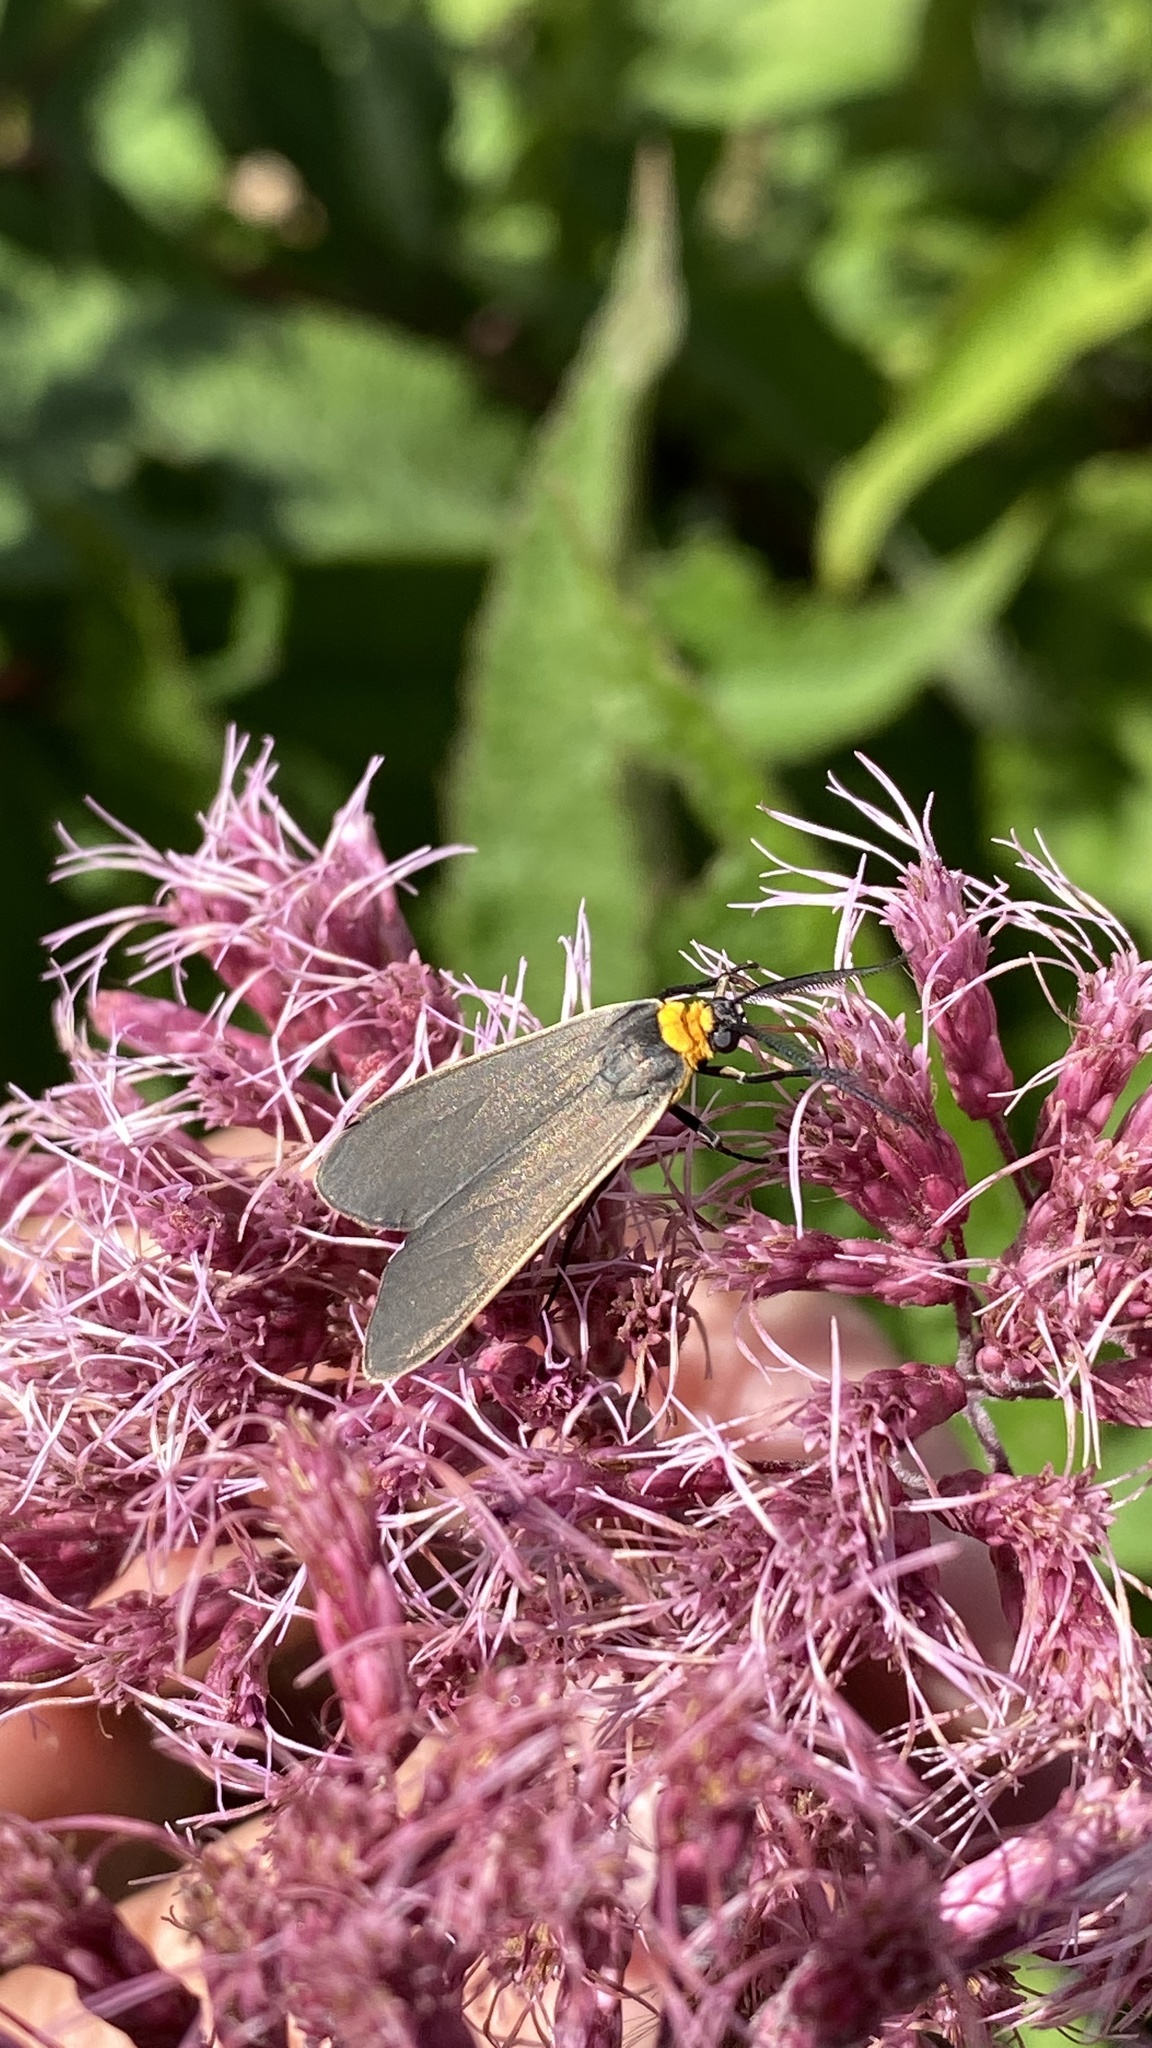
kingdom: Animalia
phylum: Arthropoda
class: Insecta
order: Lepidoptera
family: Erebidae
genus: Cisseps
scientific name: Cisseps fulvicollis
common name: Yellow-collared scape moth
